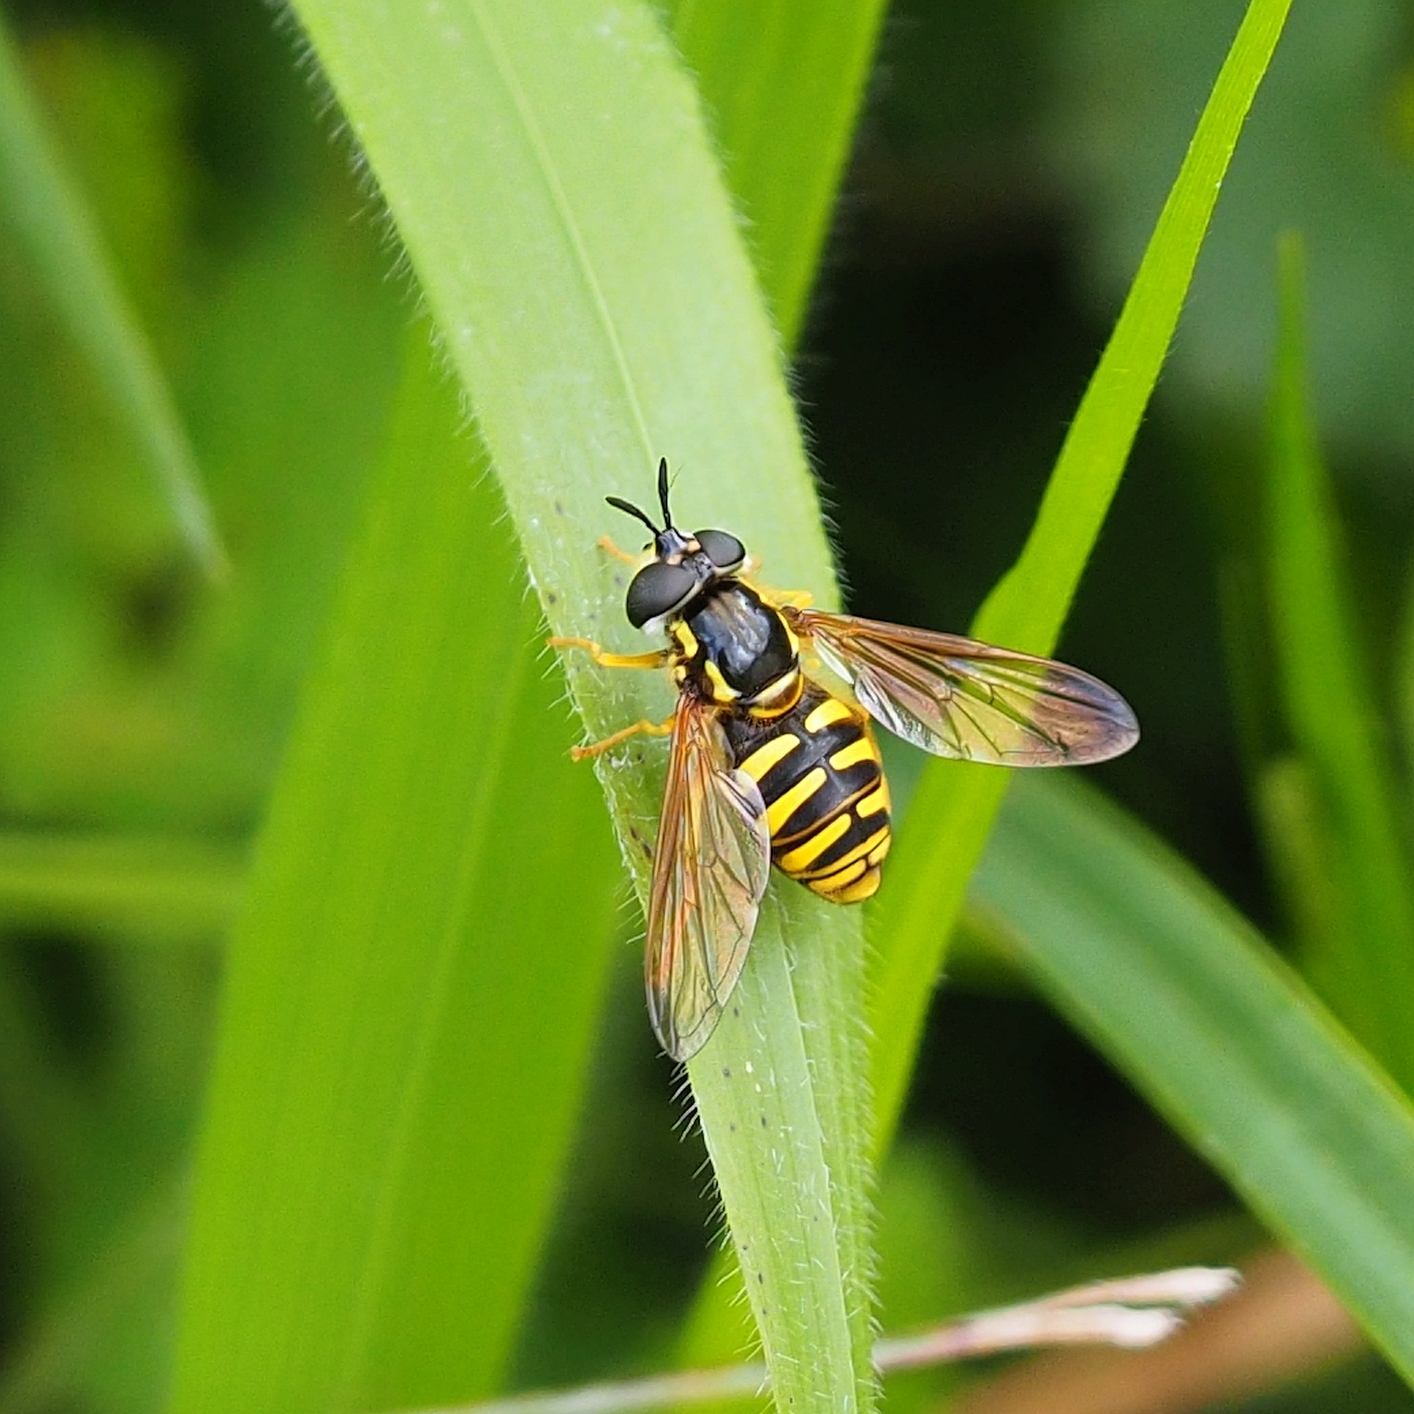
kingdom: Animalia
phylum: Arthropoda
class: Insecta
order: Diptera
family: Syrphidae
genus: Chrysotoxum
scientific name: Chrysotoxum cautum
